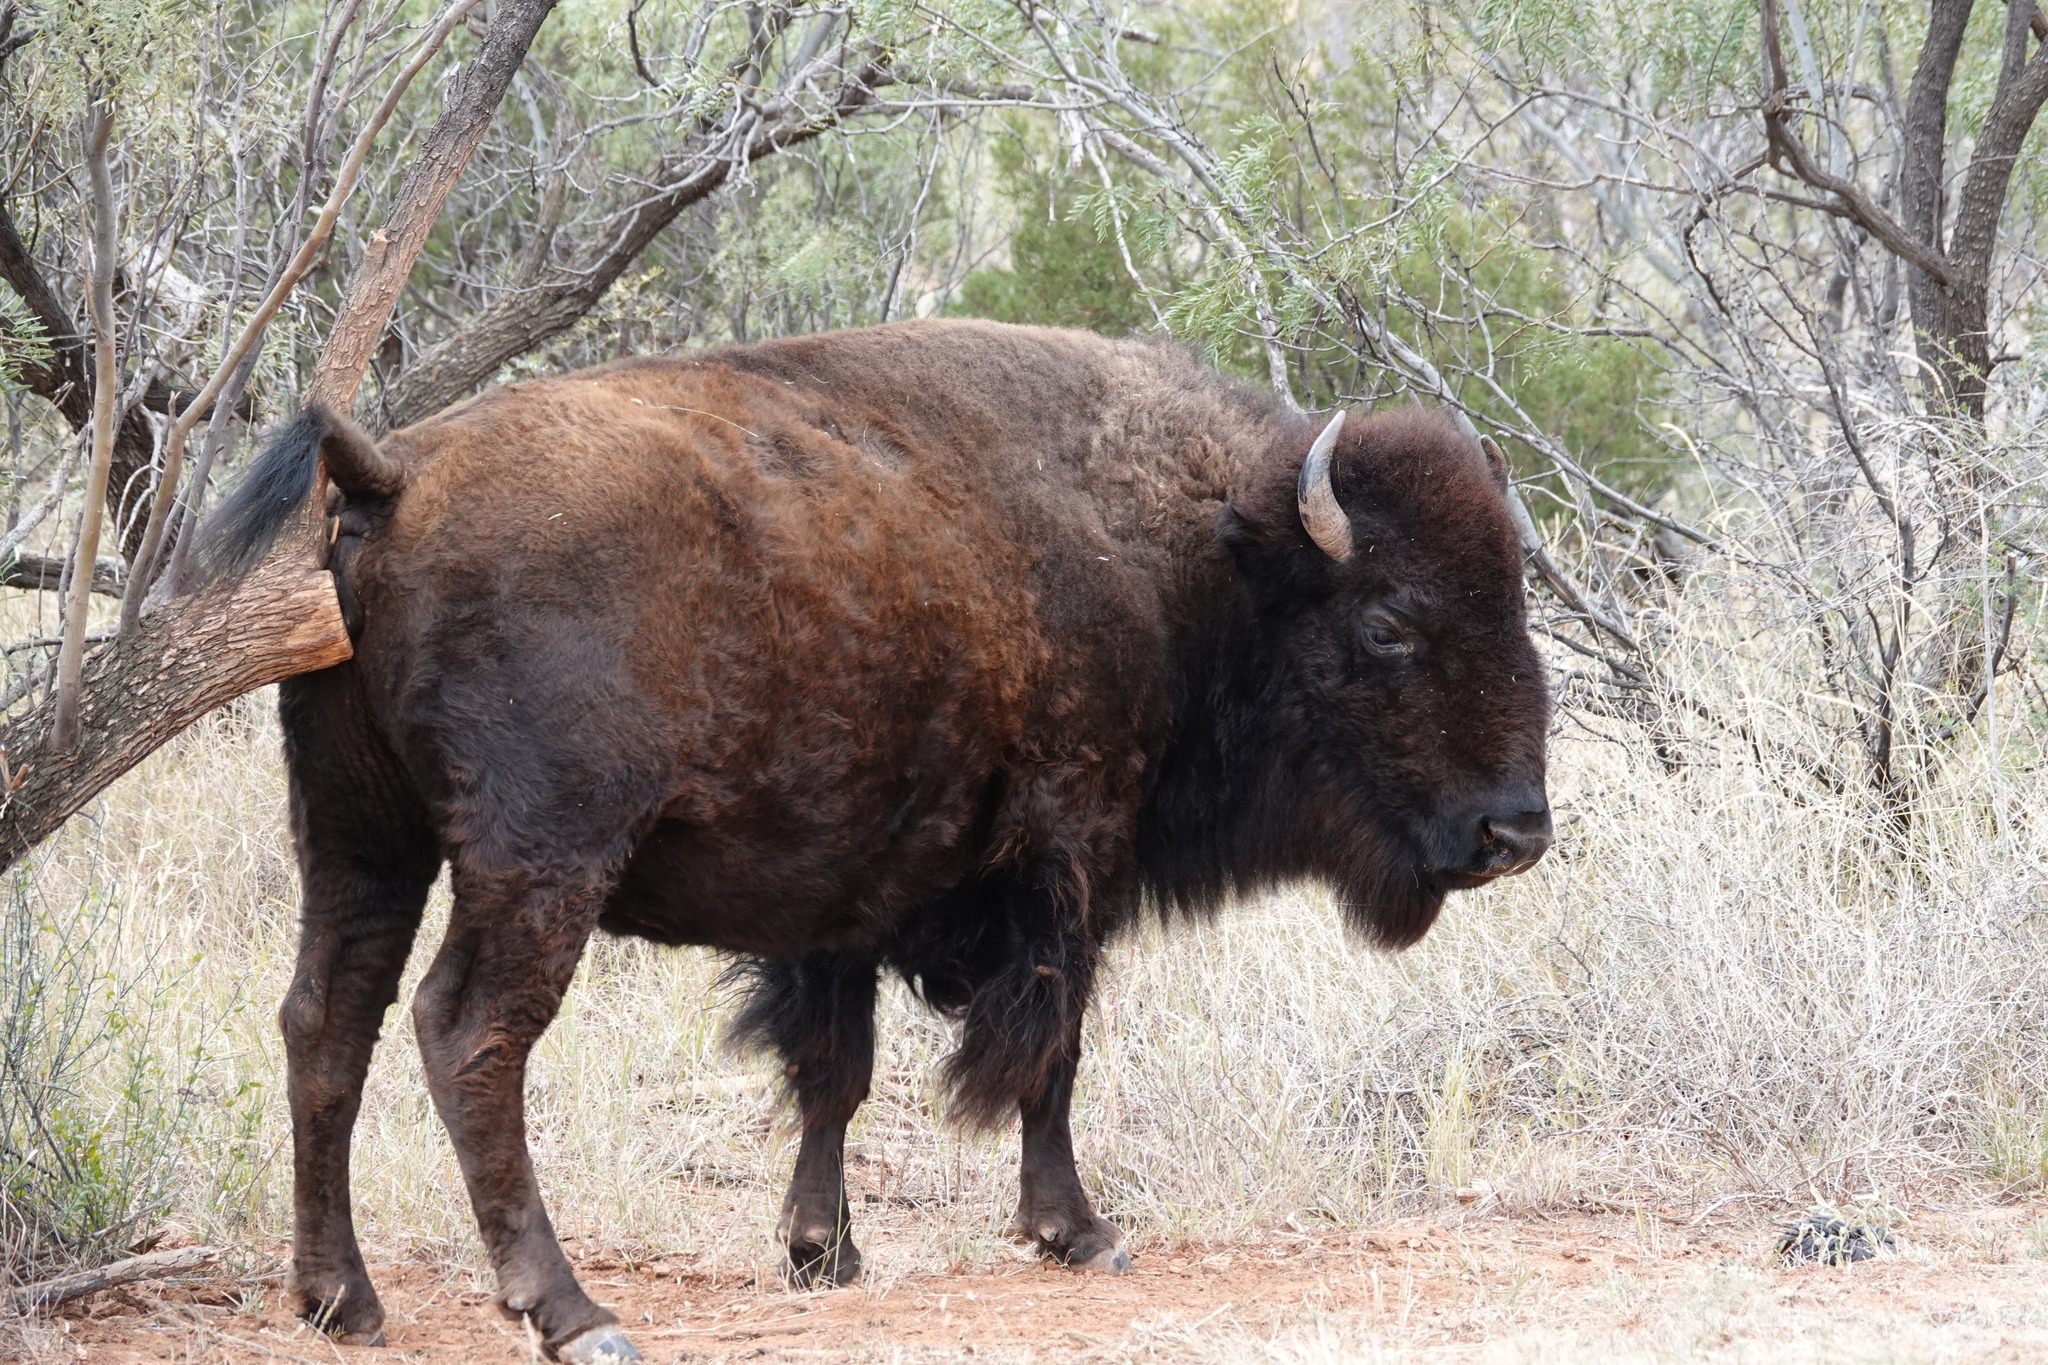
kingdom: Animalia
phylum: Chordata
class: Mammalia
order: Artiodactyla
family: Bovidae
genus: Bison
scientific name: Bison bison
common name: American bison
